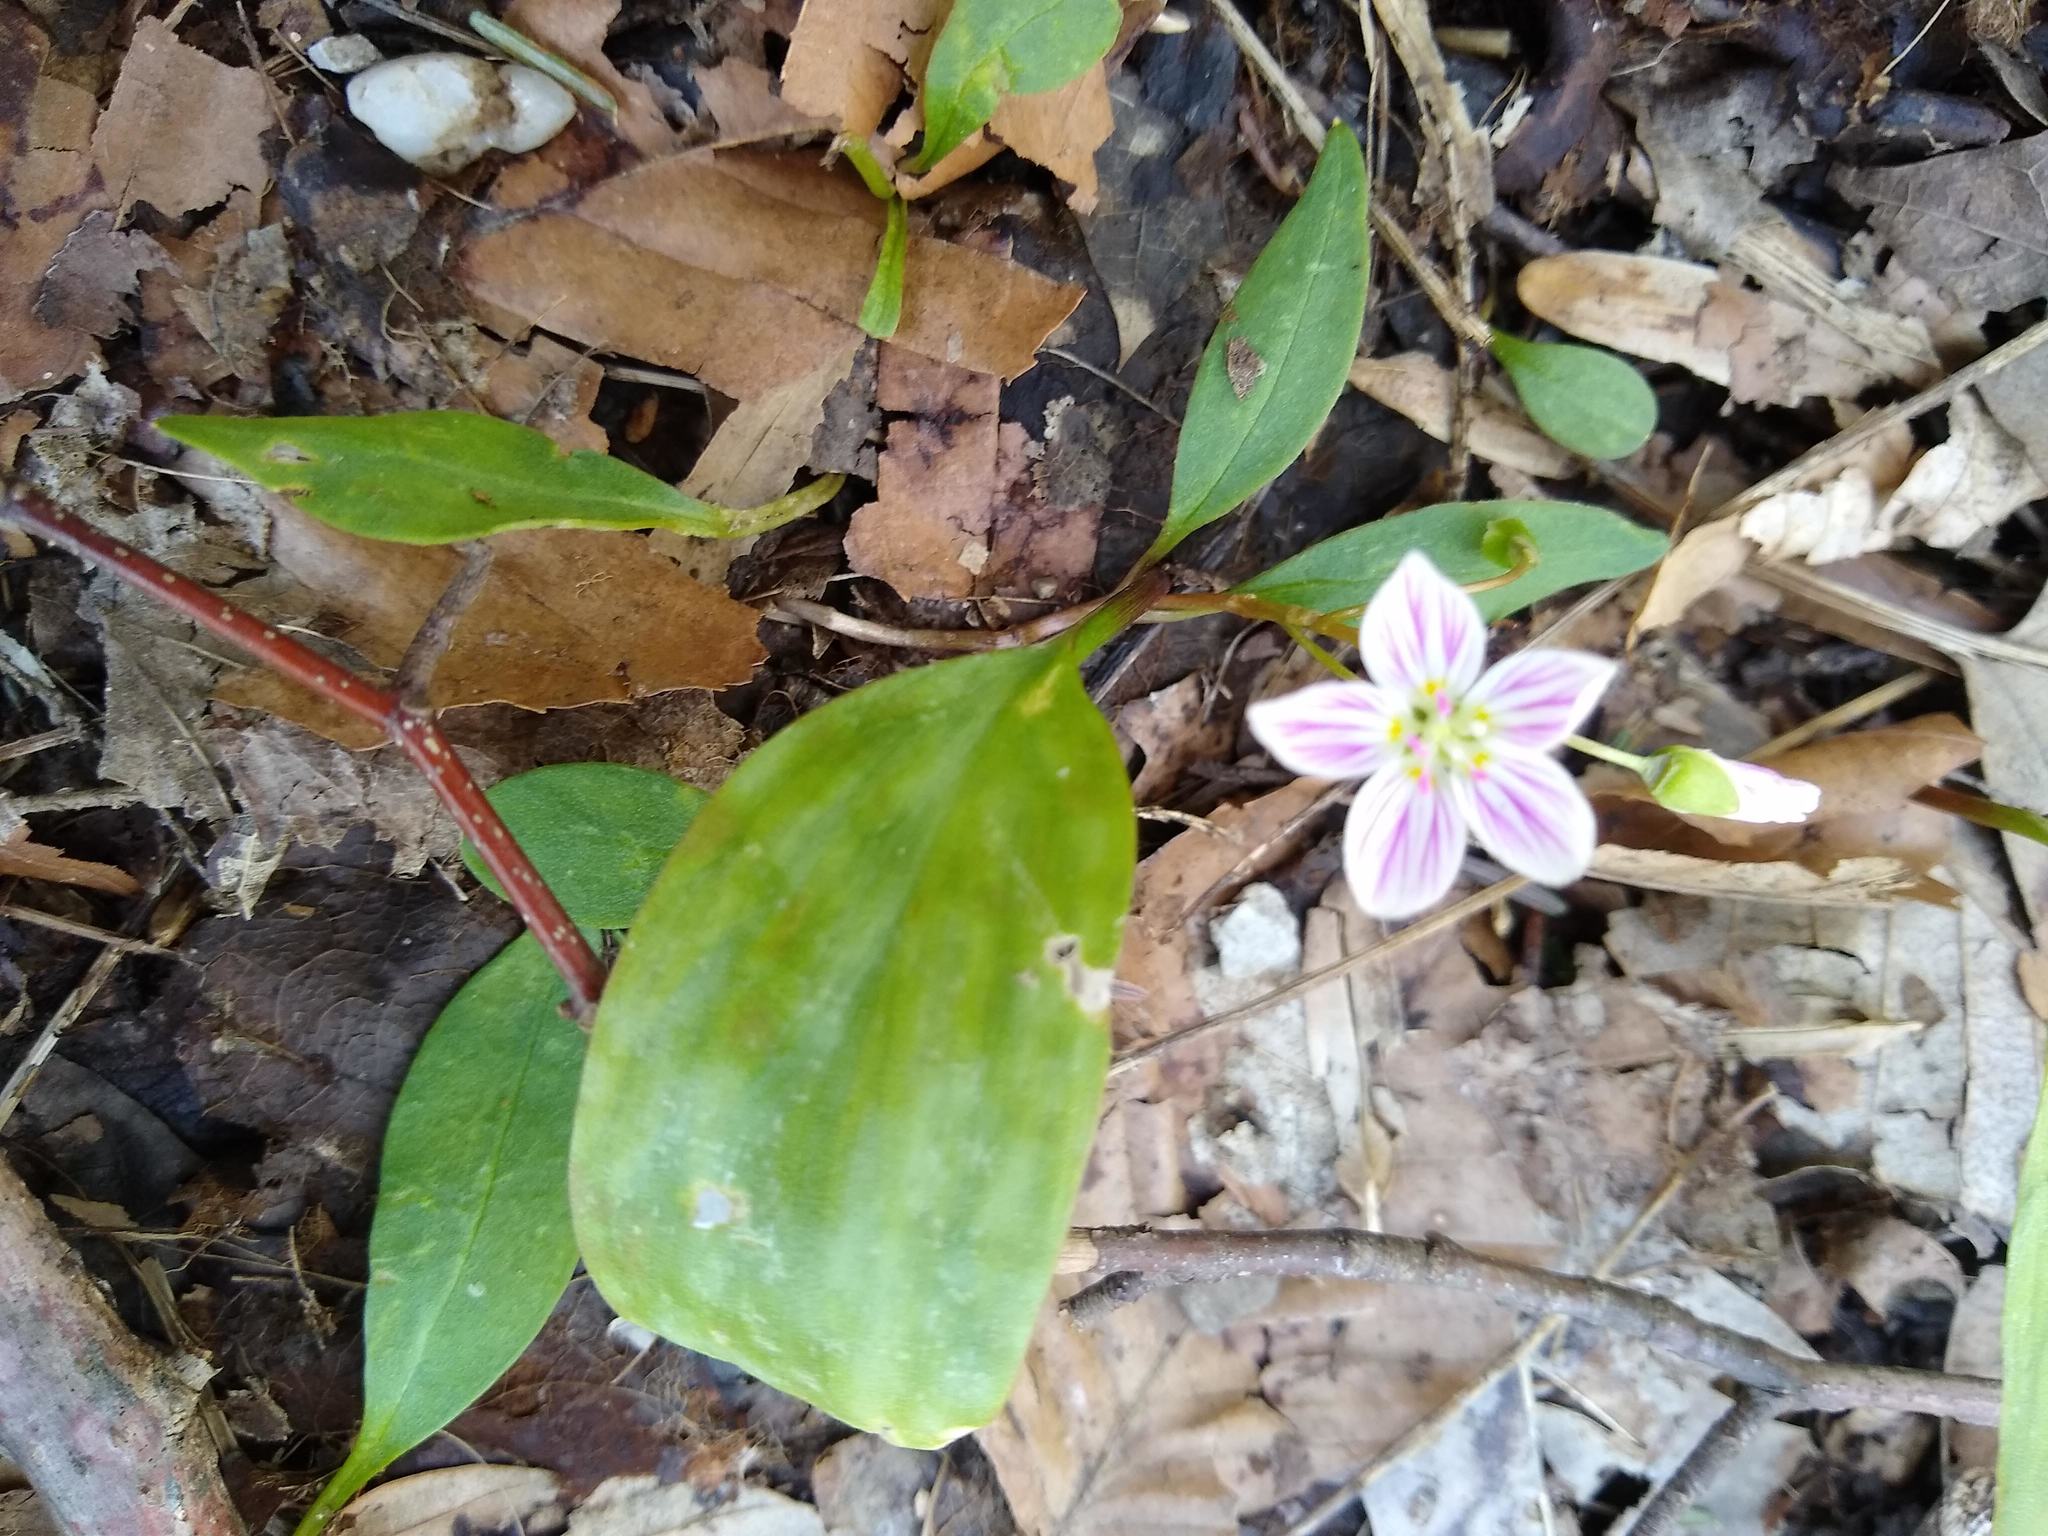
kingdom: Plantae
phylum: Tracheophyta
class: Magnoliopsida
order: Caryophyllales
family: Montiaceae
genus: Claytonia
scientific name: Claytonia caroliniana
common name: Carolina spring beauty
